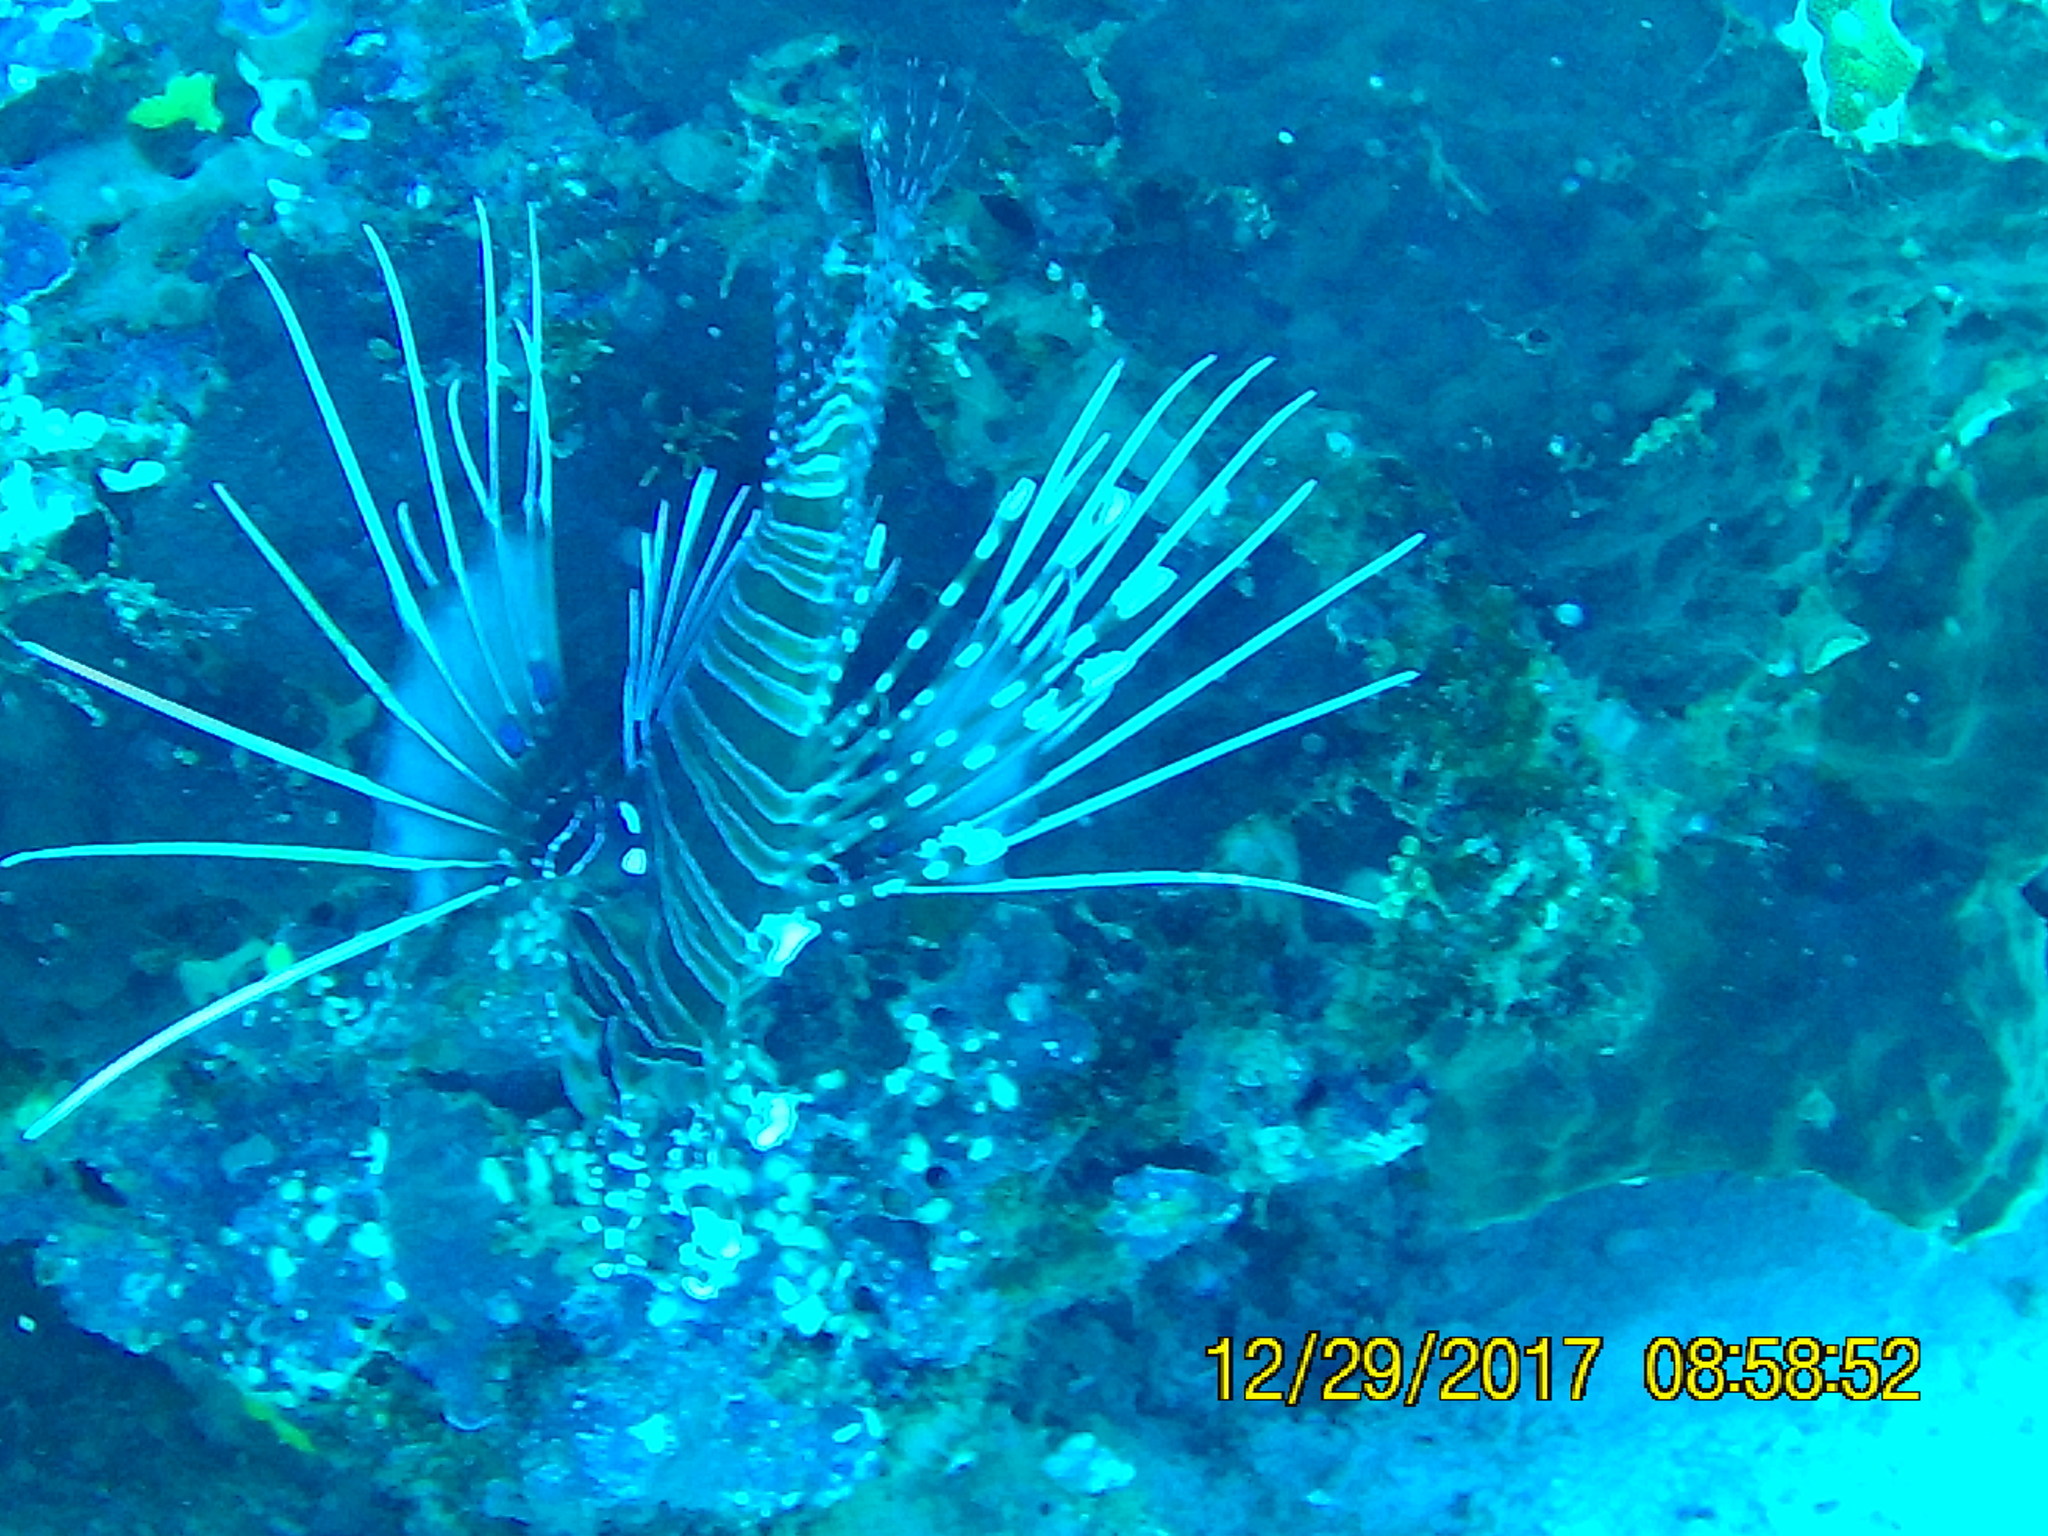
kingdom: Animalia
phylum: Chordata
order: Scorpaeniformes
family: Scorpaenidae
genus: Pterois
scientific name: Pterois antennata
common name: Spotfin lionfish
